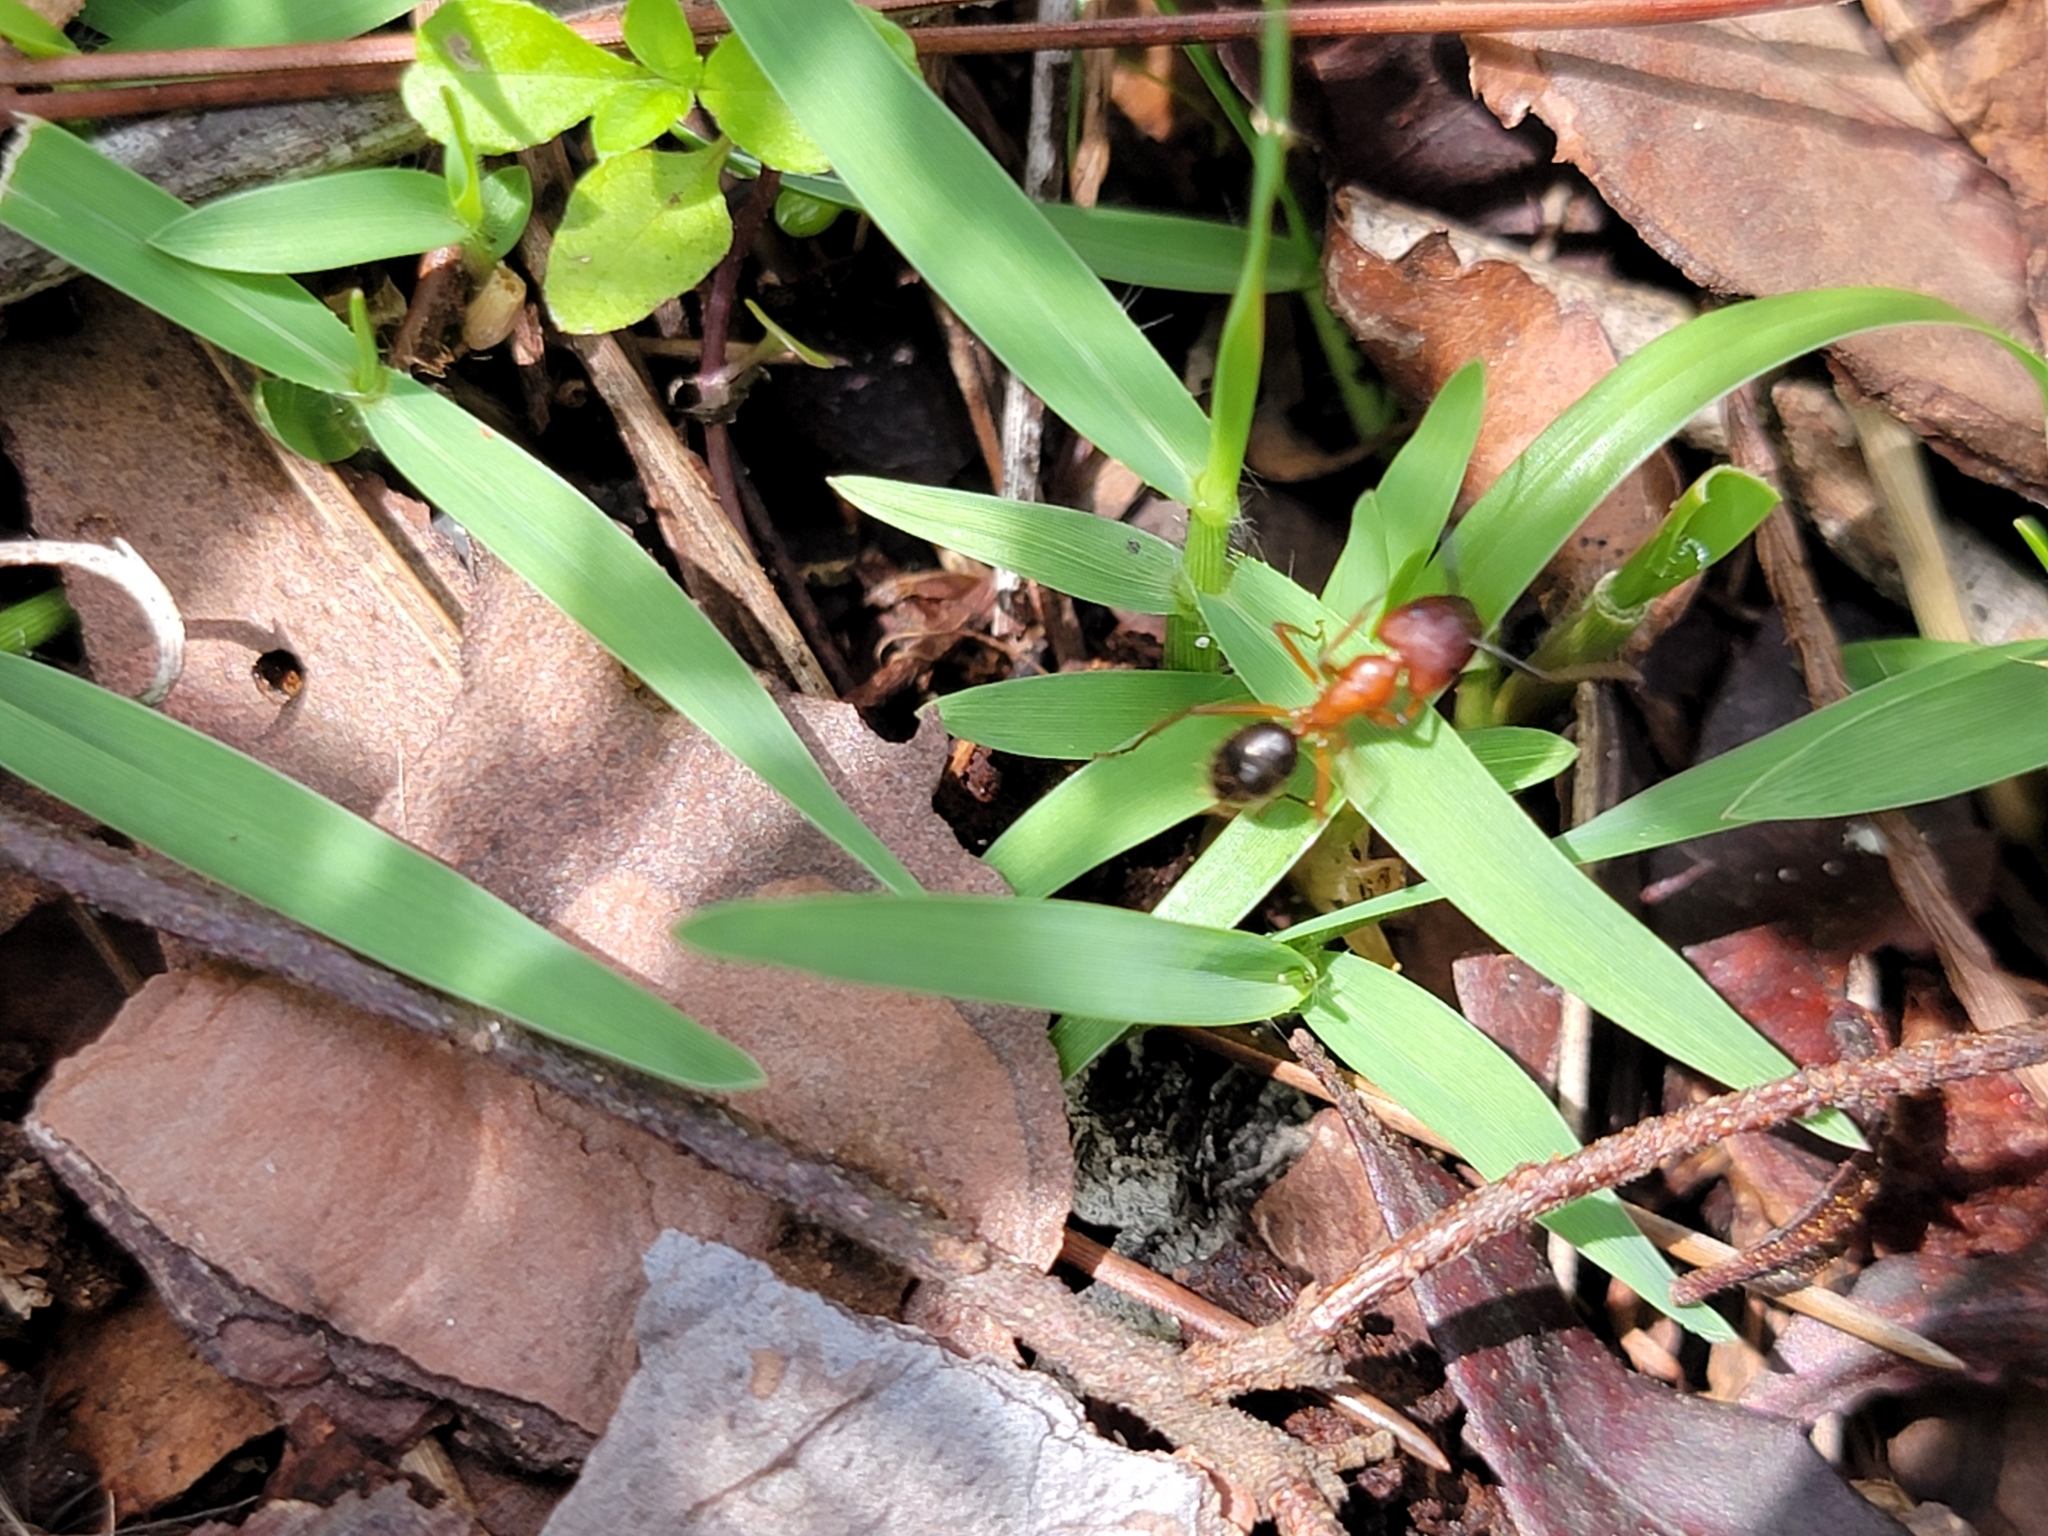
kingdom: Animalia
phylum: Arthropoda
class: Insecta
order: Hymenoptera
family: Formicidae
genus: Camponotus
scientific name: Camponotus floridanus
